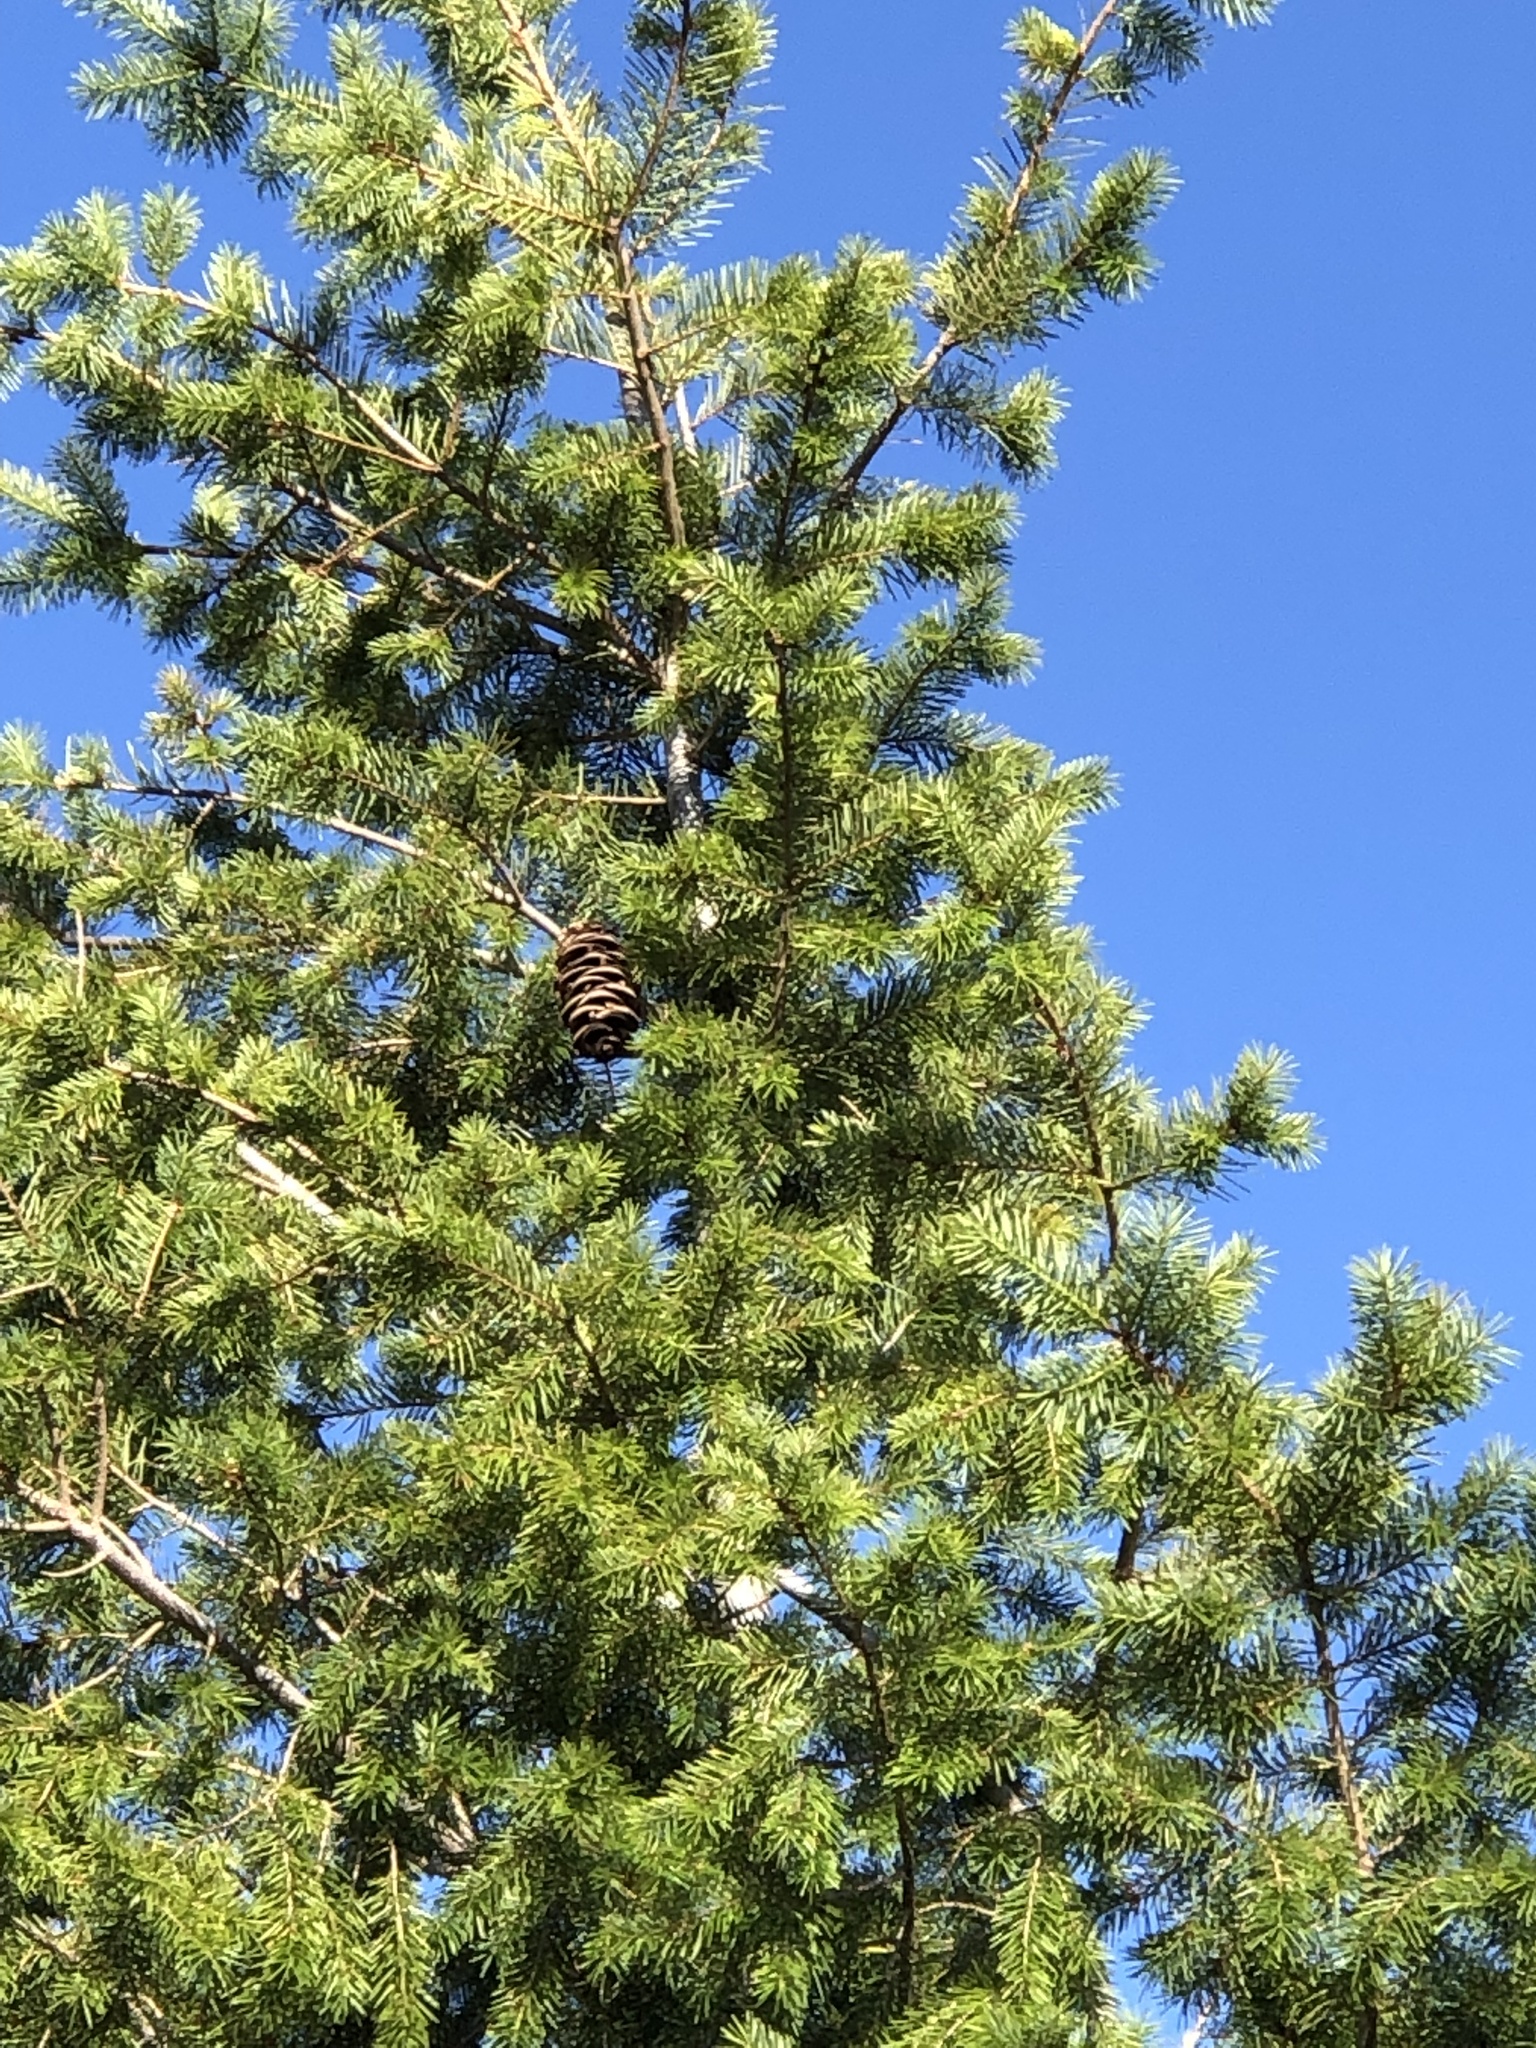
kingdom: Plantae
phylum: Tracheophyta
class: Pinopsida
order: Pinales
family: Pinaceae
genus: Pseudotsuga
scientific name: Pseudotsuga macrocarpa
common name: Big-cone douglas-fir
